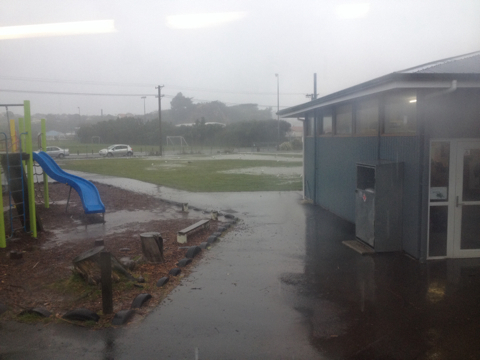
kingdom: Animalia
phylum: Chordata
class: Aves
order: Charadriiformes
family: Laridae
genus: Larus
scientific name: Larus dominicanus
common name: Kelp gull
